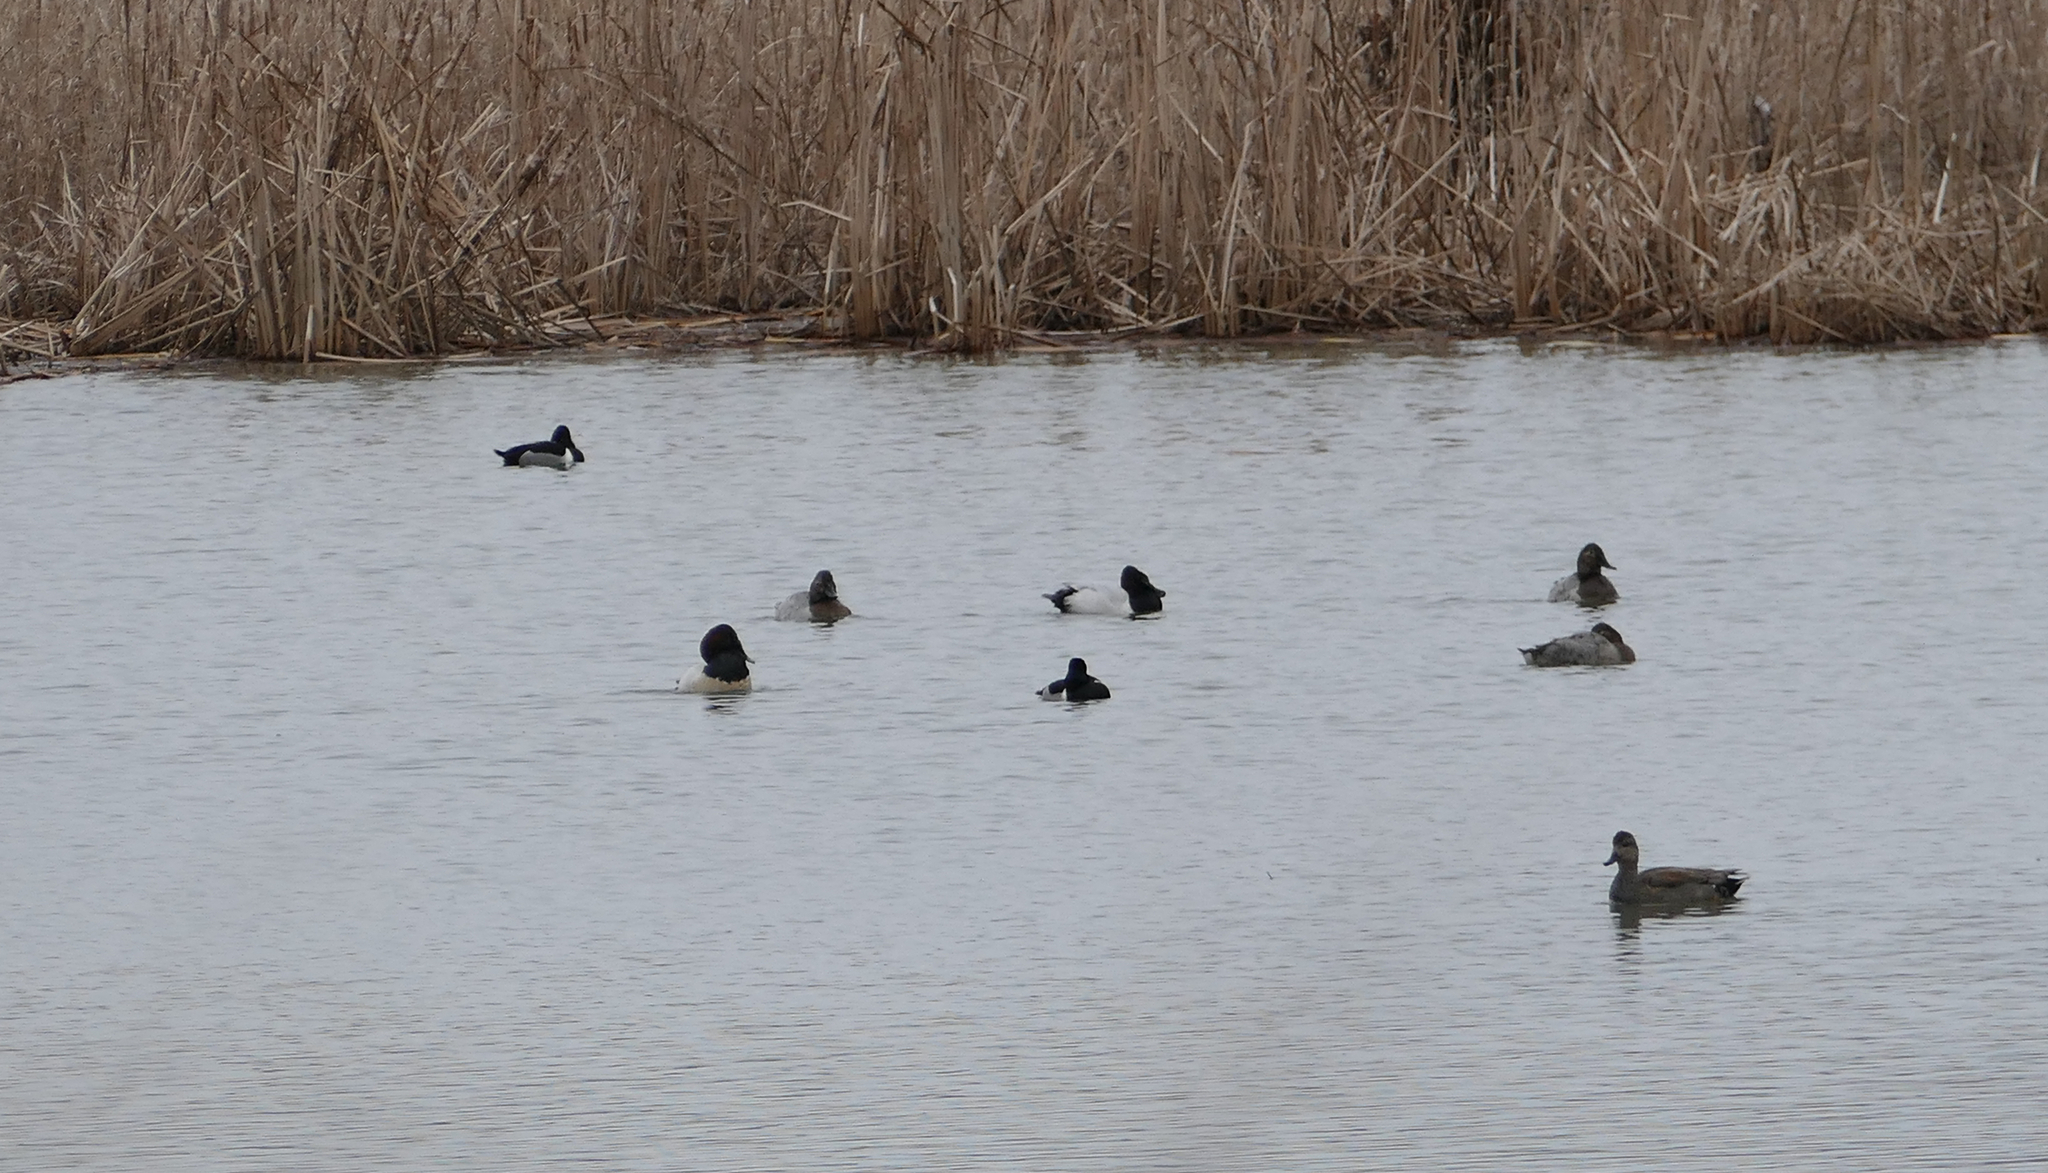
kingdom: Animalia
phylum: Chordata
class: Aves
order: Anseriformes
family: Anatidae
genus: Aythya
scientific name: Aythya valisineria
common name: Canvasback
